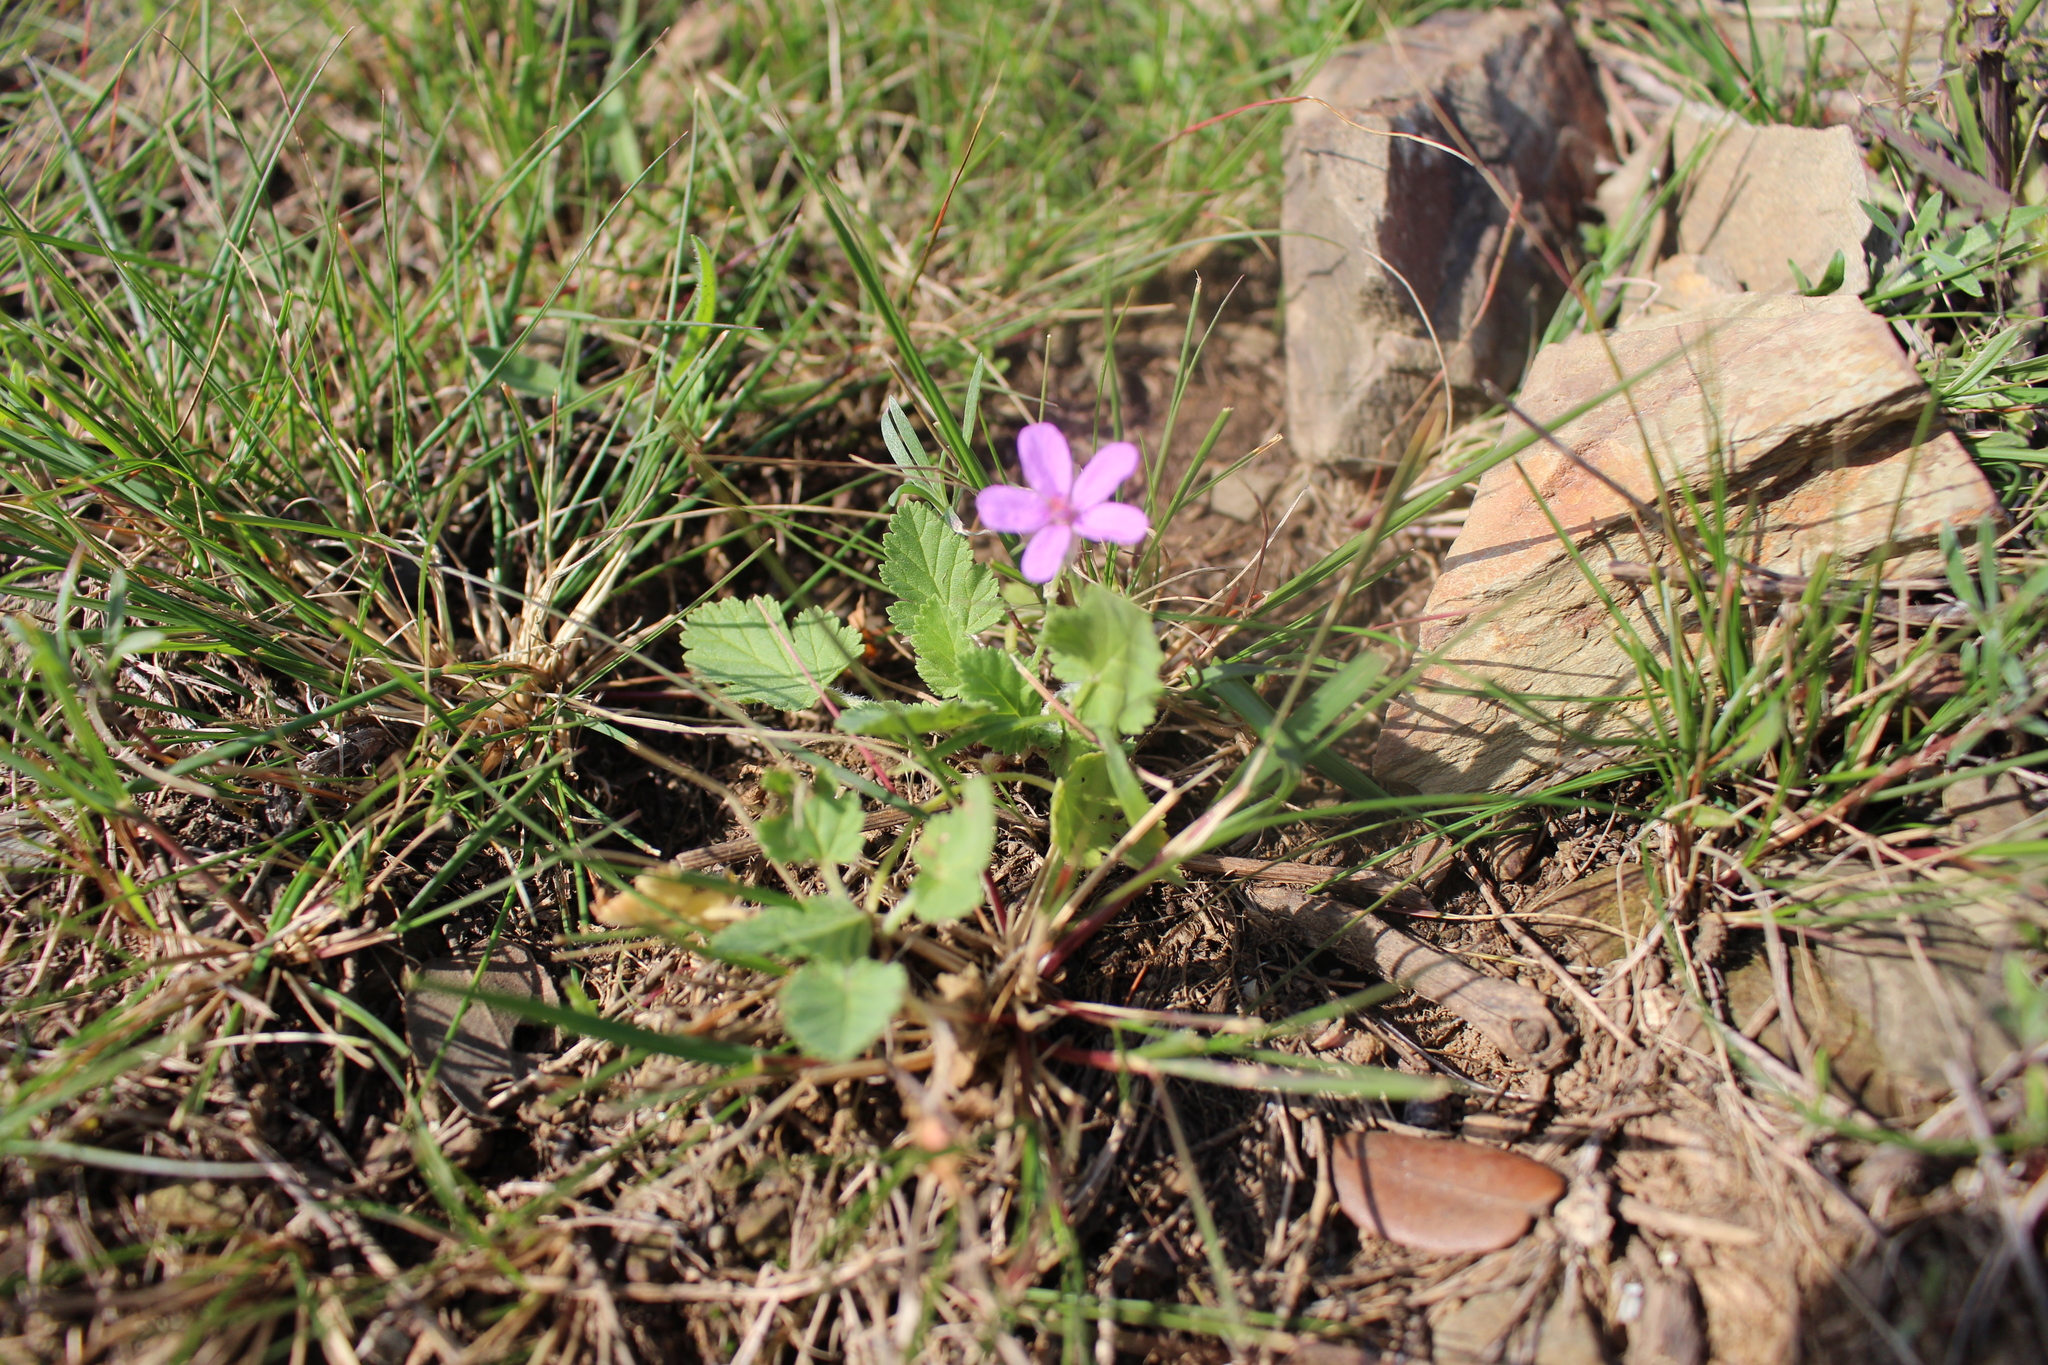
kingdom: Plantae
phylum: Tracheophyta
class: Magnoliopsida
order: Geraniales
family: Geraniaceae
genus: Erodium
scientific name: Erodium malacoides
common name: Soft stork's-bill
